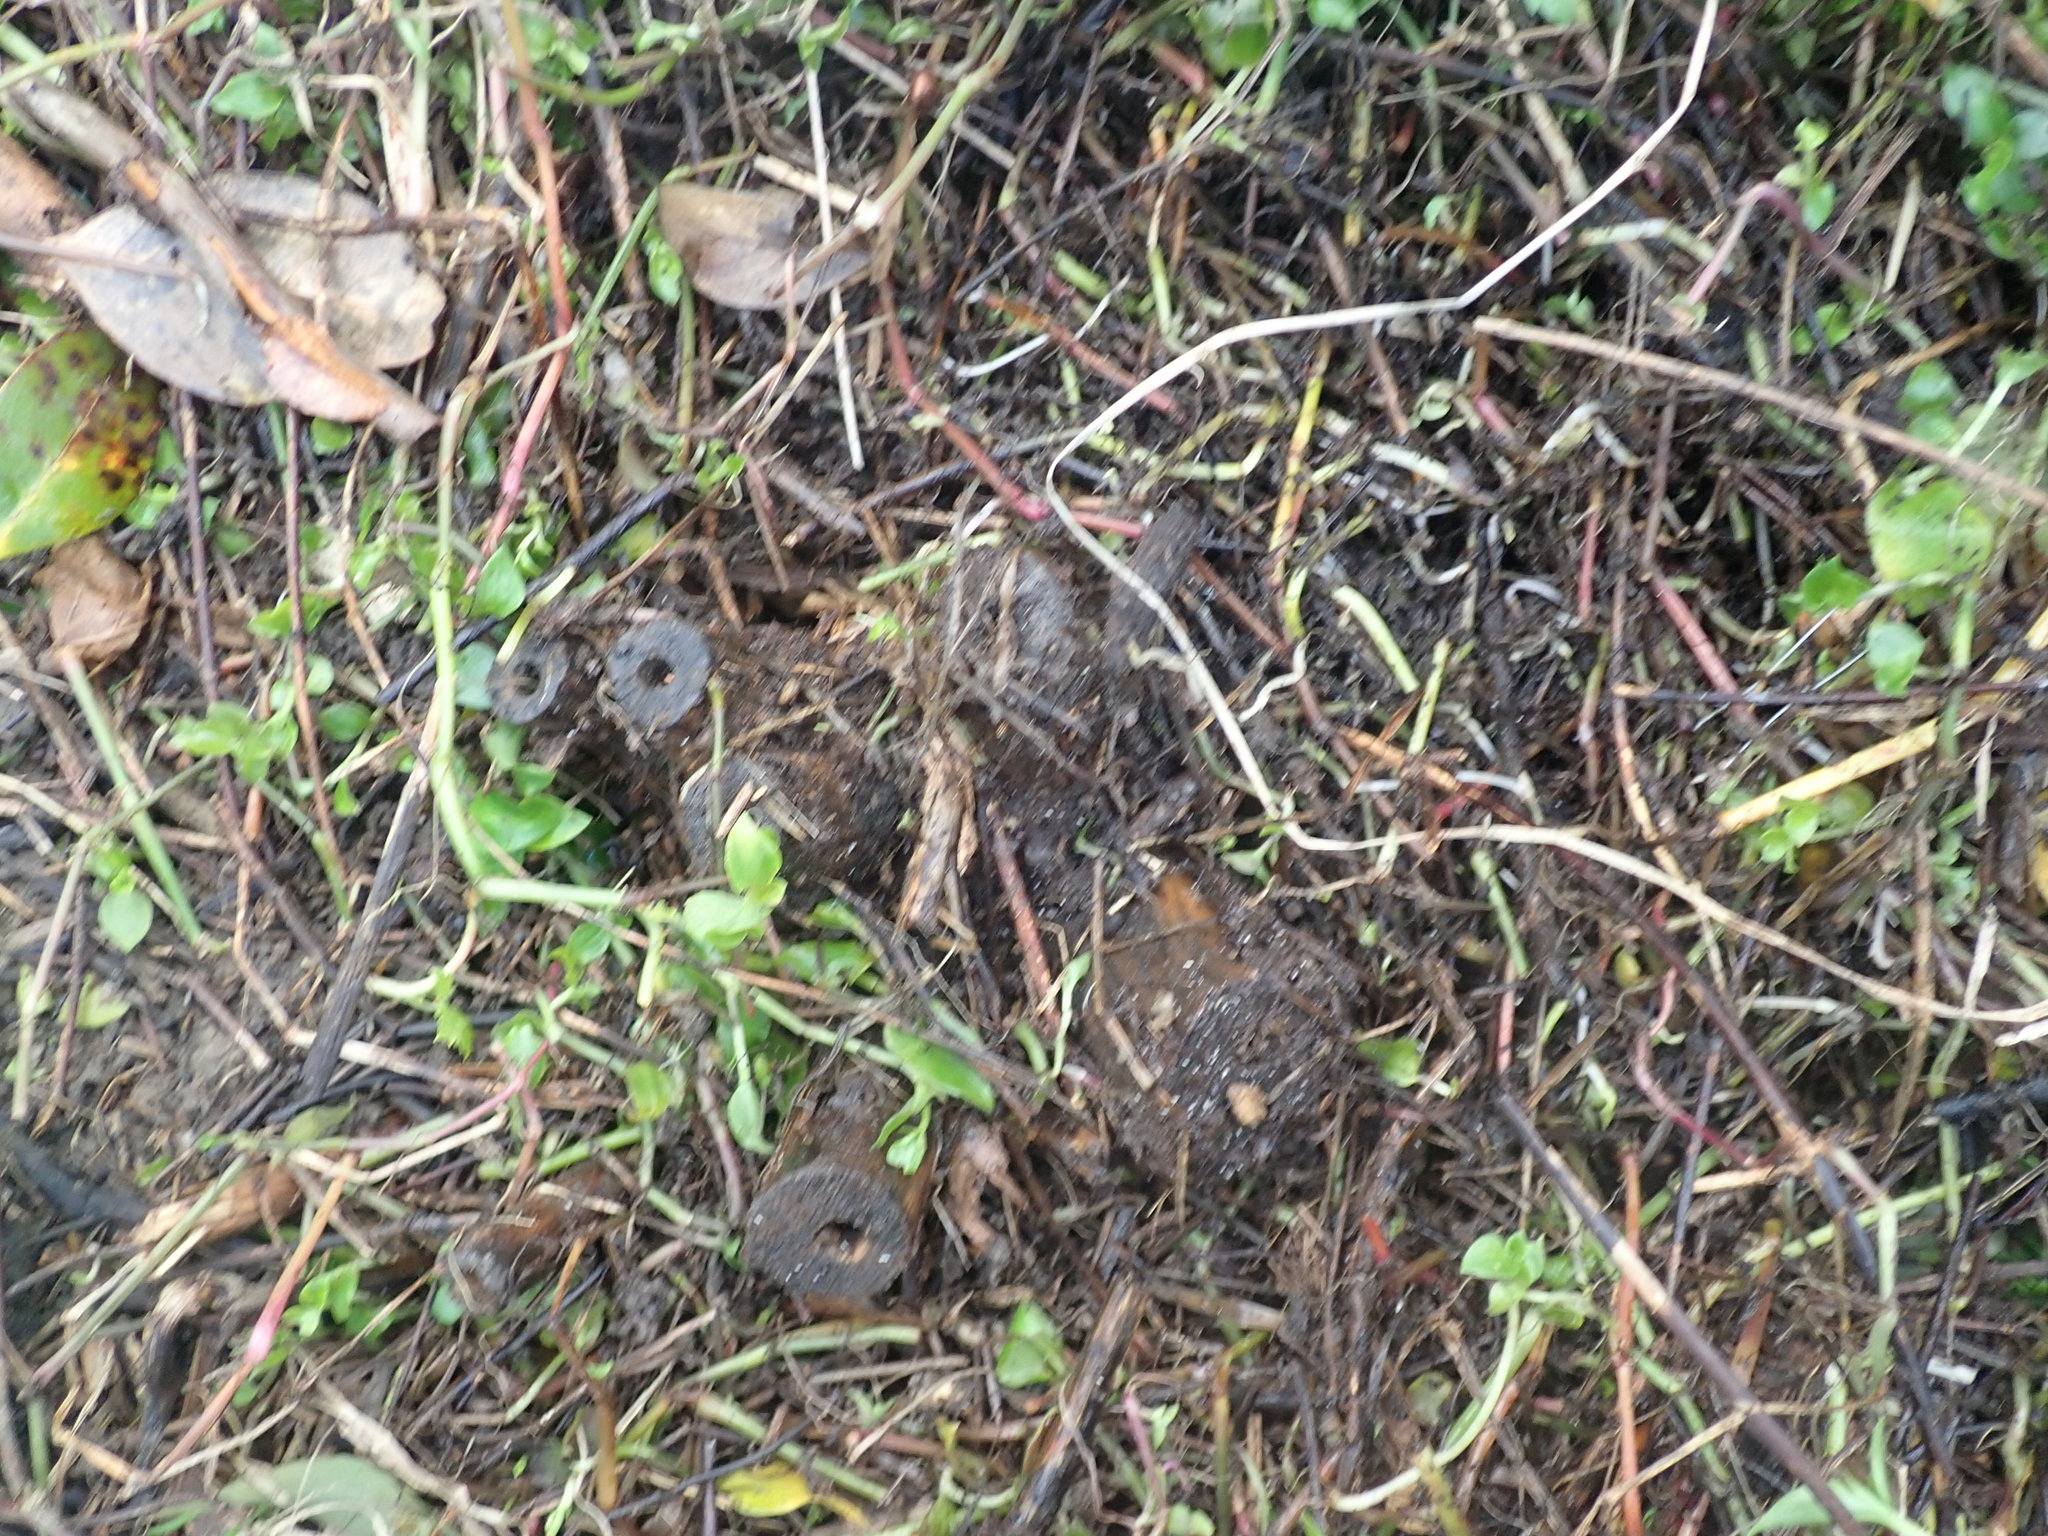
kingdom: Plantae
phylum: Tracheophyta
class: Magnoliopsida
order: Geraniales
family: Melianthaceae
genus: Melianthus
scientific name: Melianthus major
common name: Honey-flower
